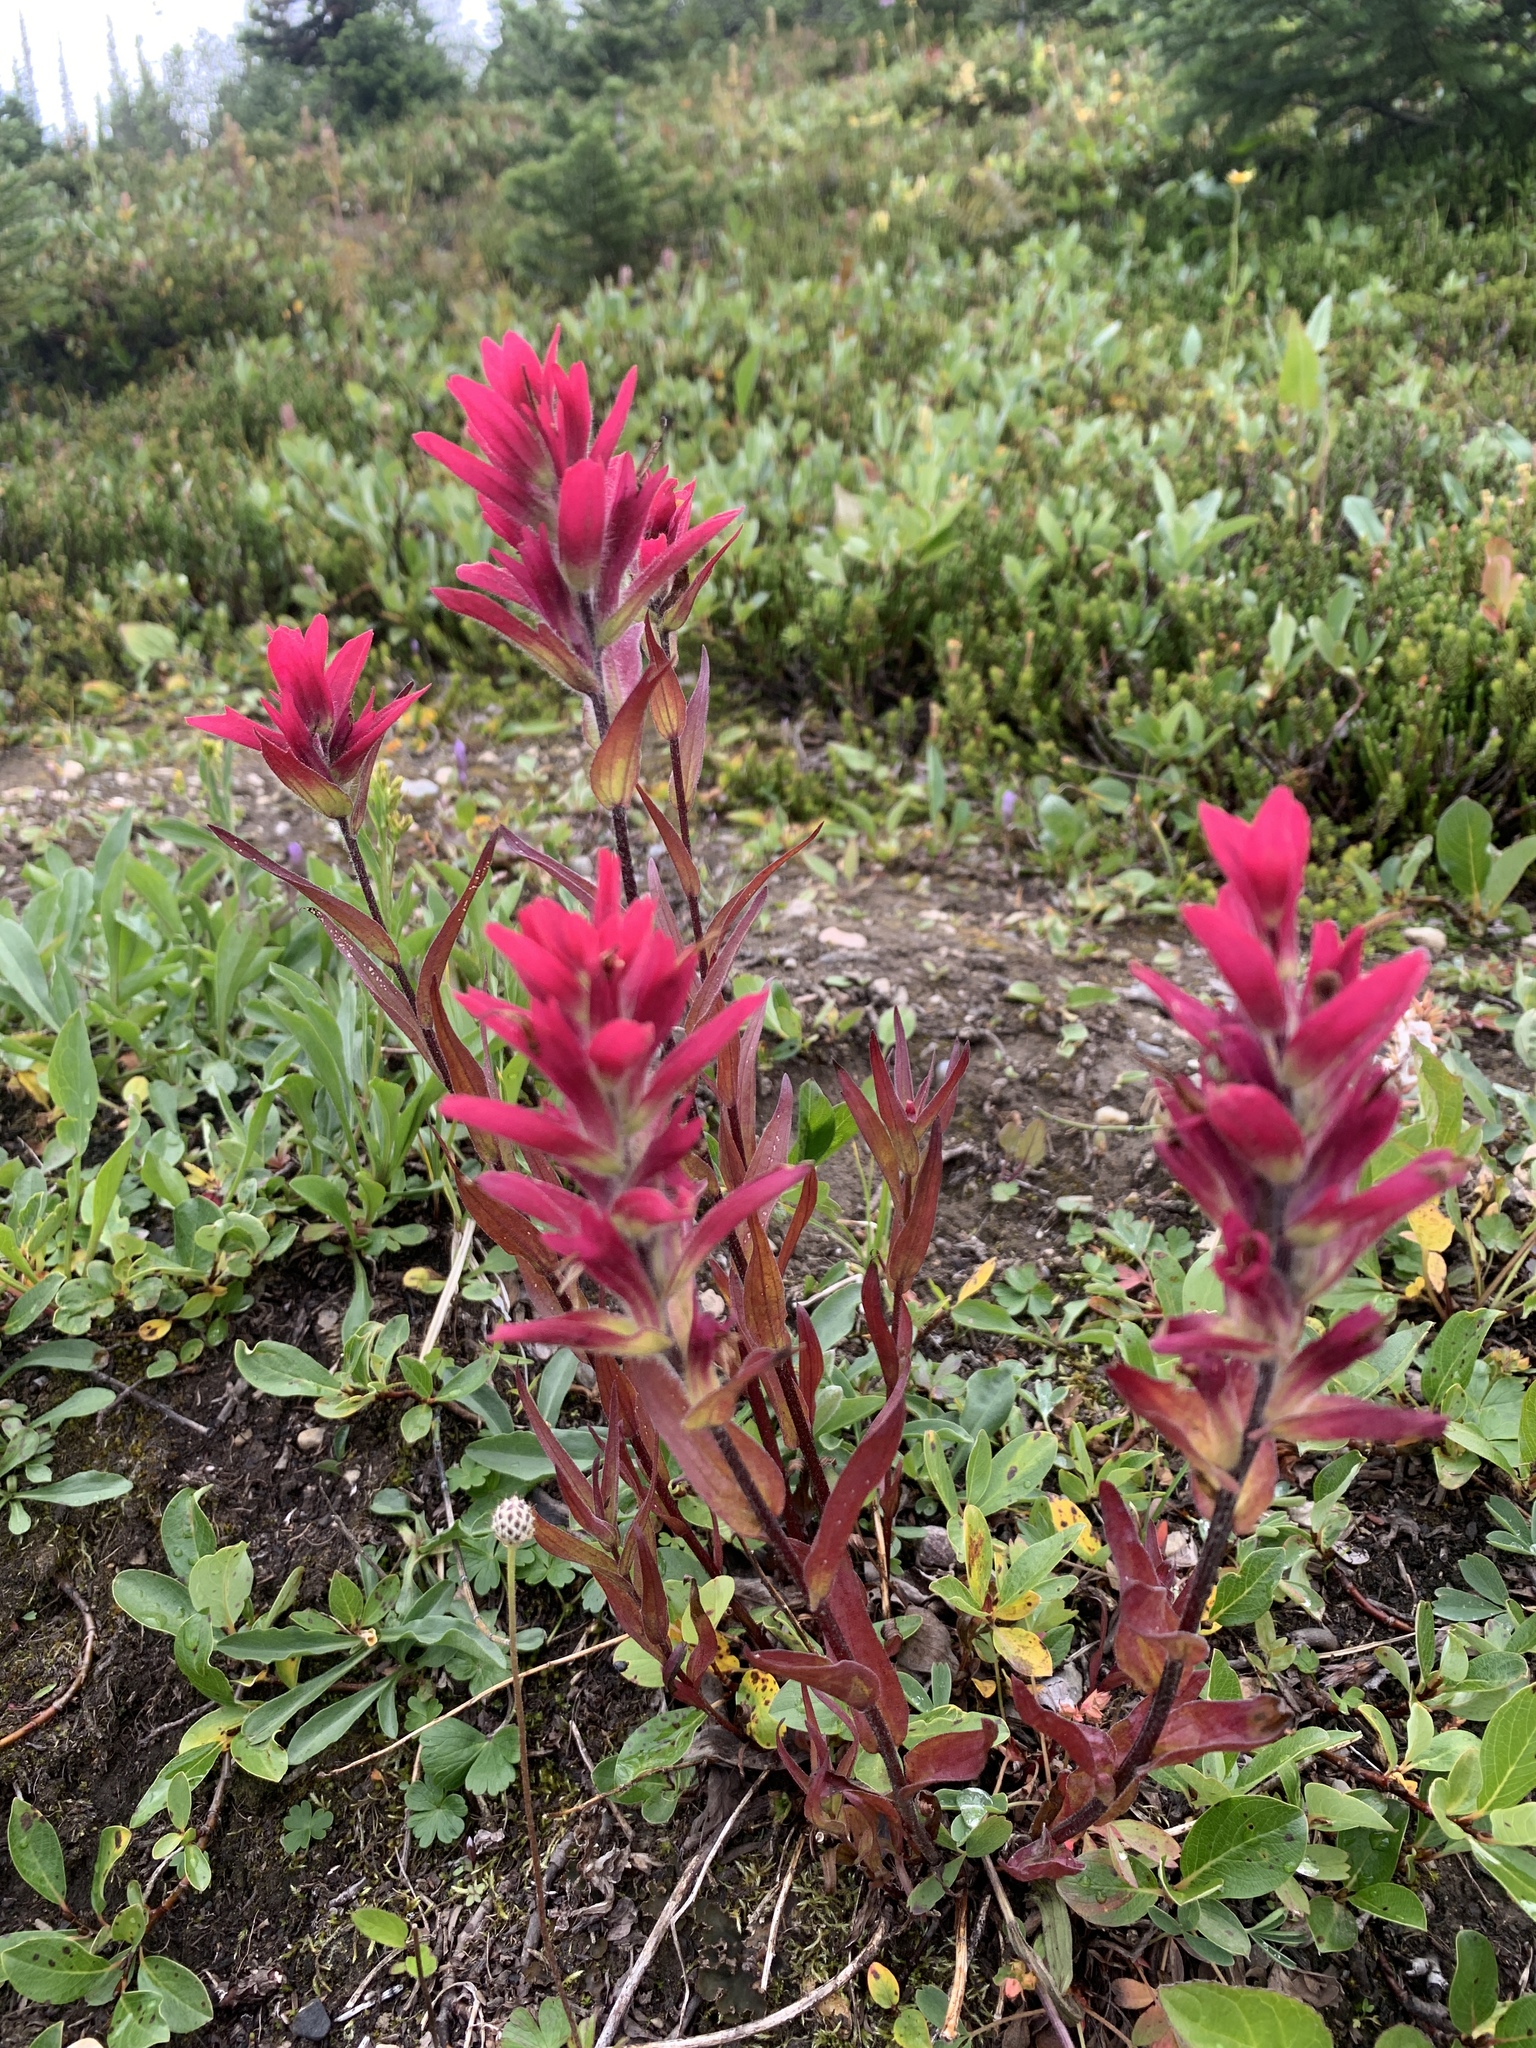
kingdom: Plantae
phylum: Tracheophyta
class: Magnoliopsida
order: Lamiales
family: Orobanchaceae
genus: Castilleja
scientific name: Castilleja rhexifolia
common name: Rocky mountain paintbrush
